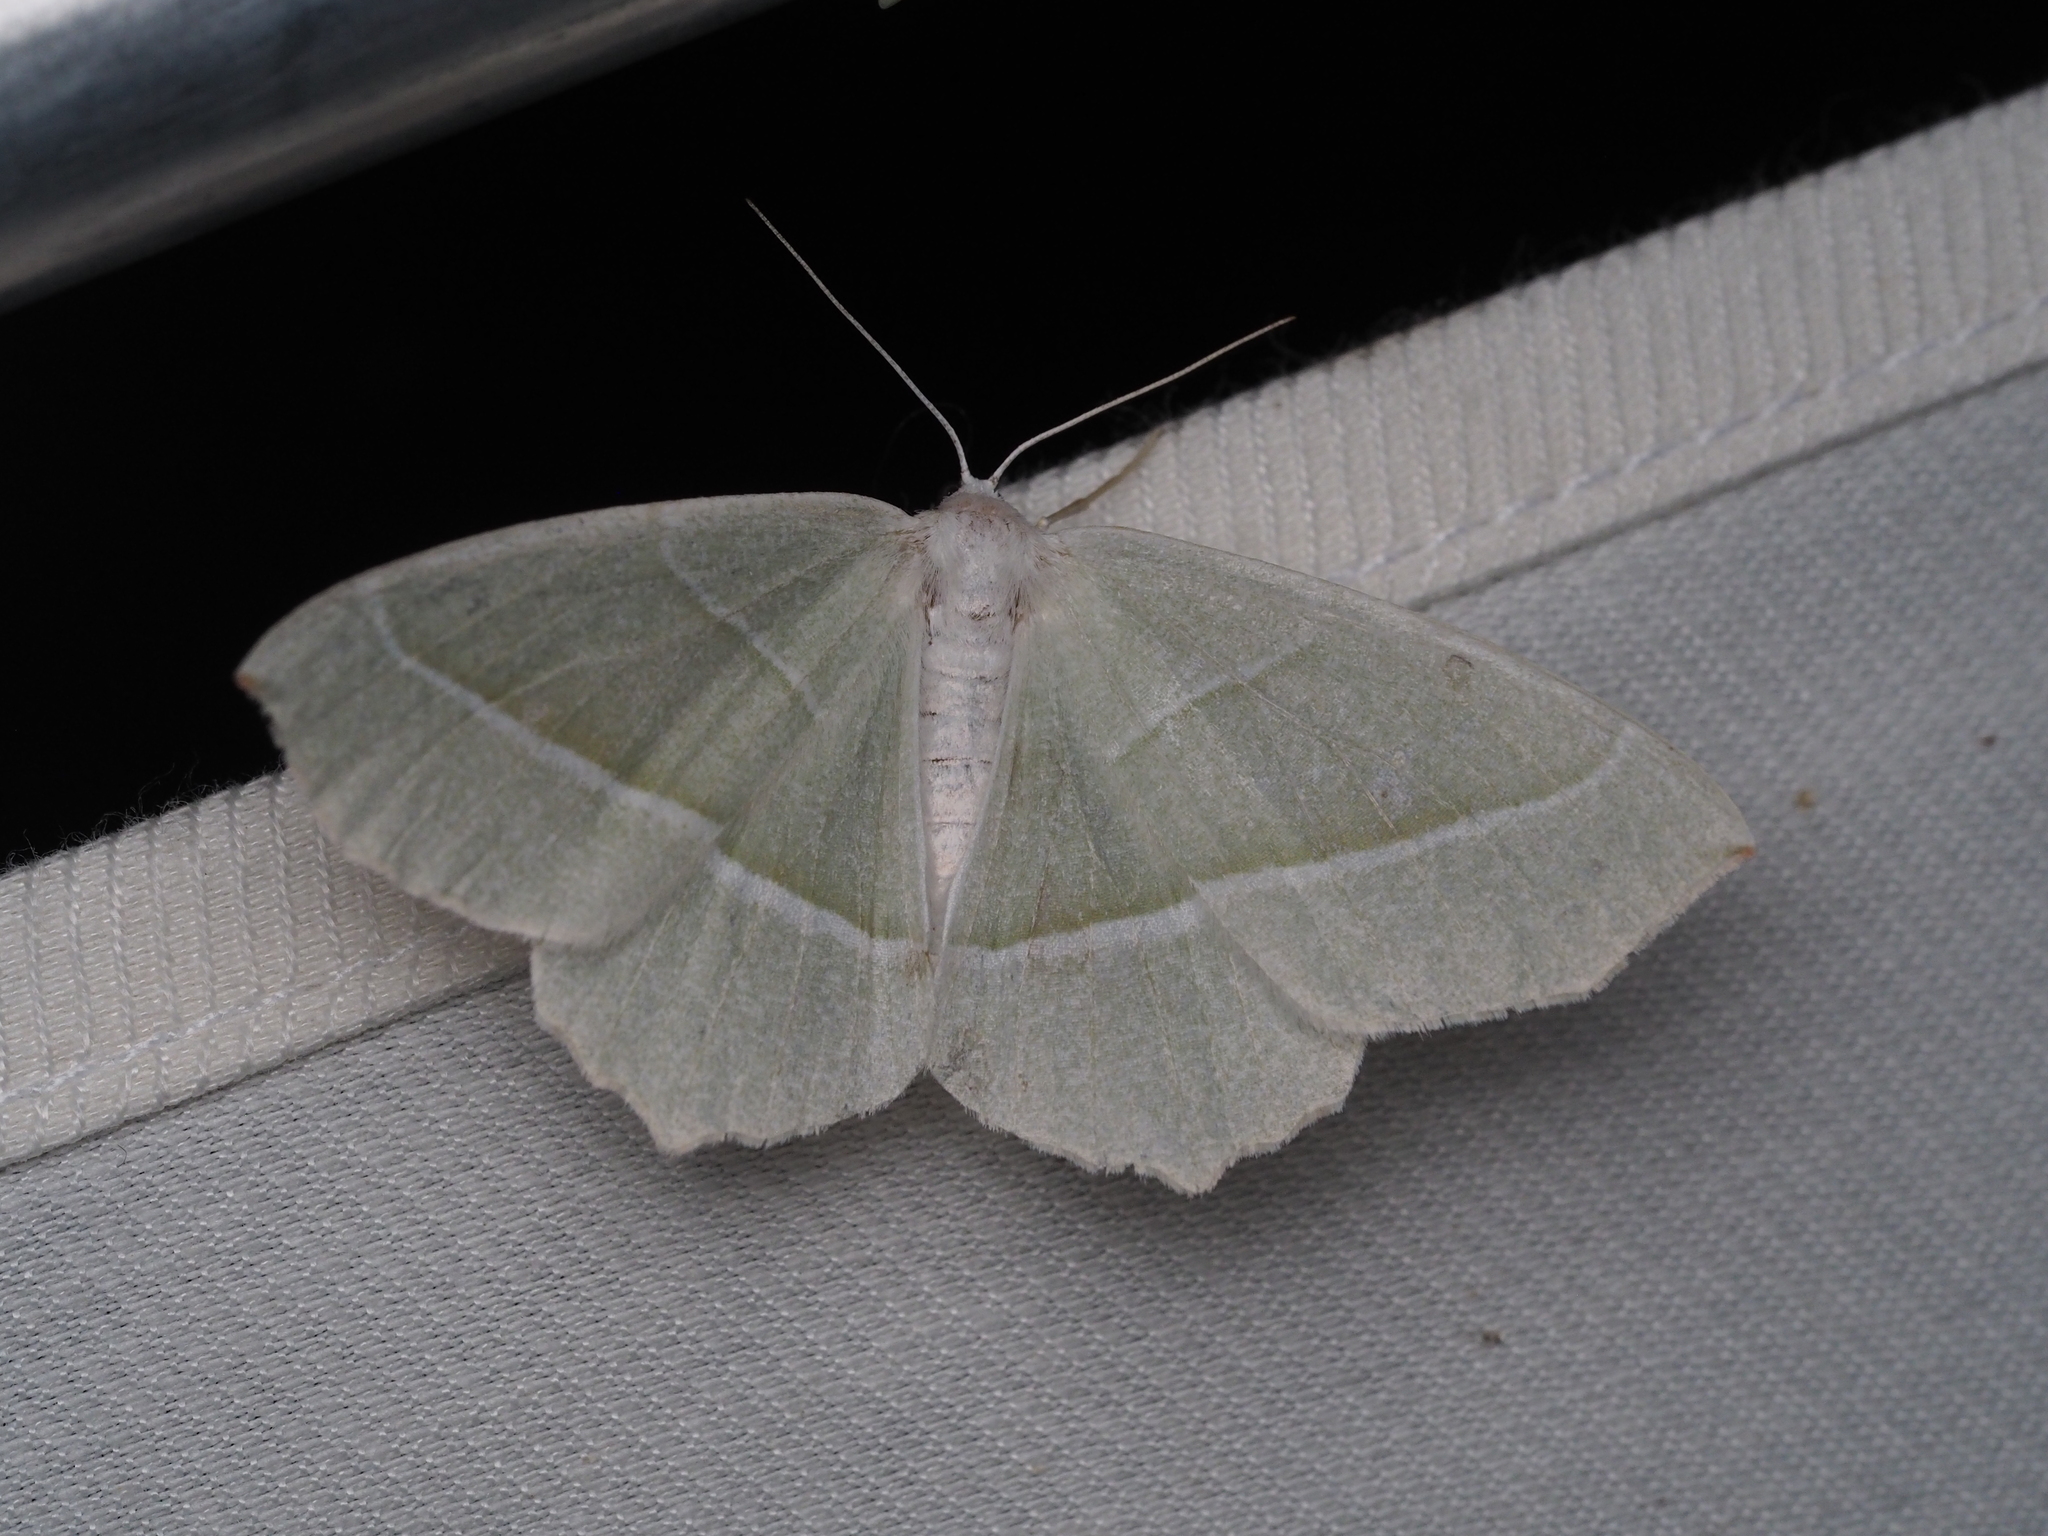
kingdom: Animalia
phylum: Arthropoda
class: Insecta
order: Lepidoptera
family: Geometridae
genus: Campaea
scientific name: Campaea margaritaria
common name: Light emerald
